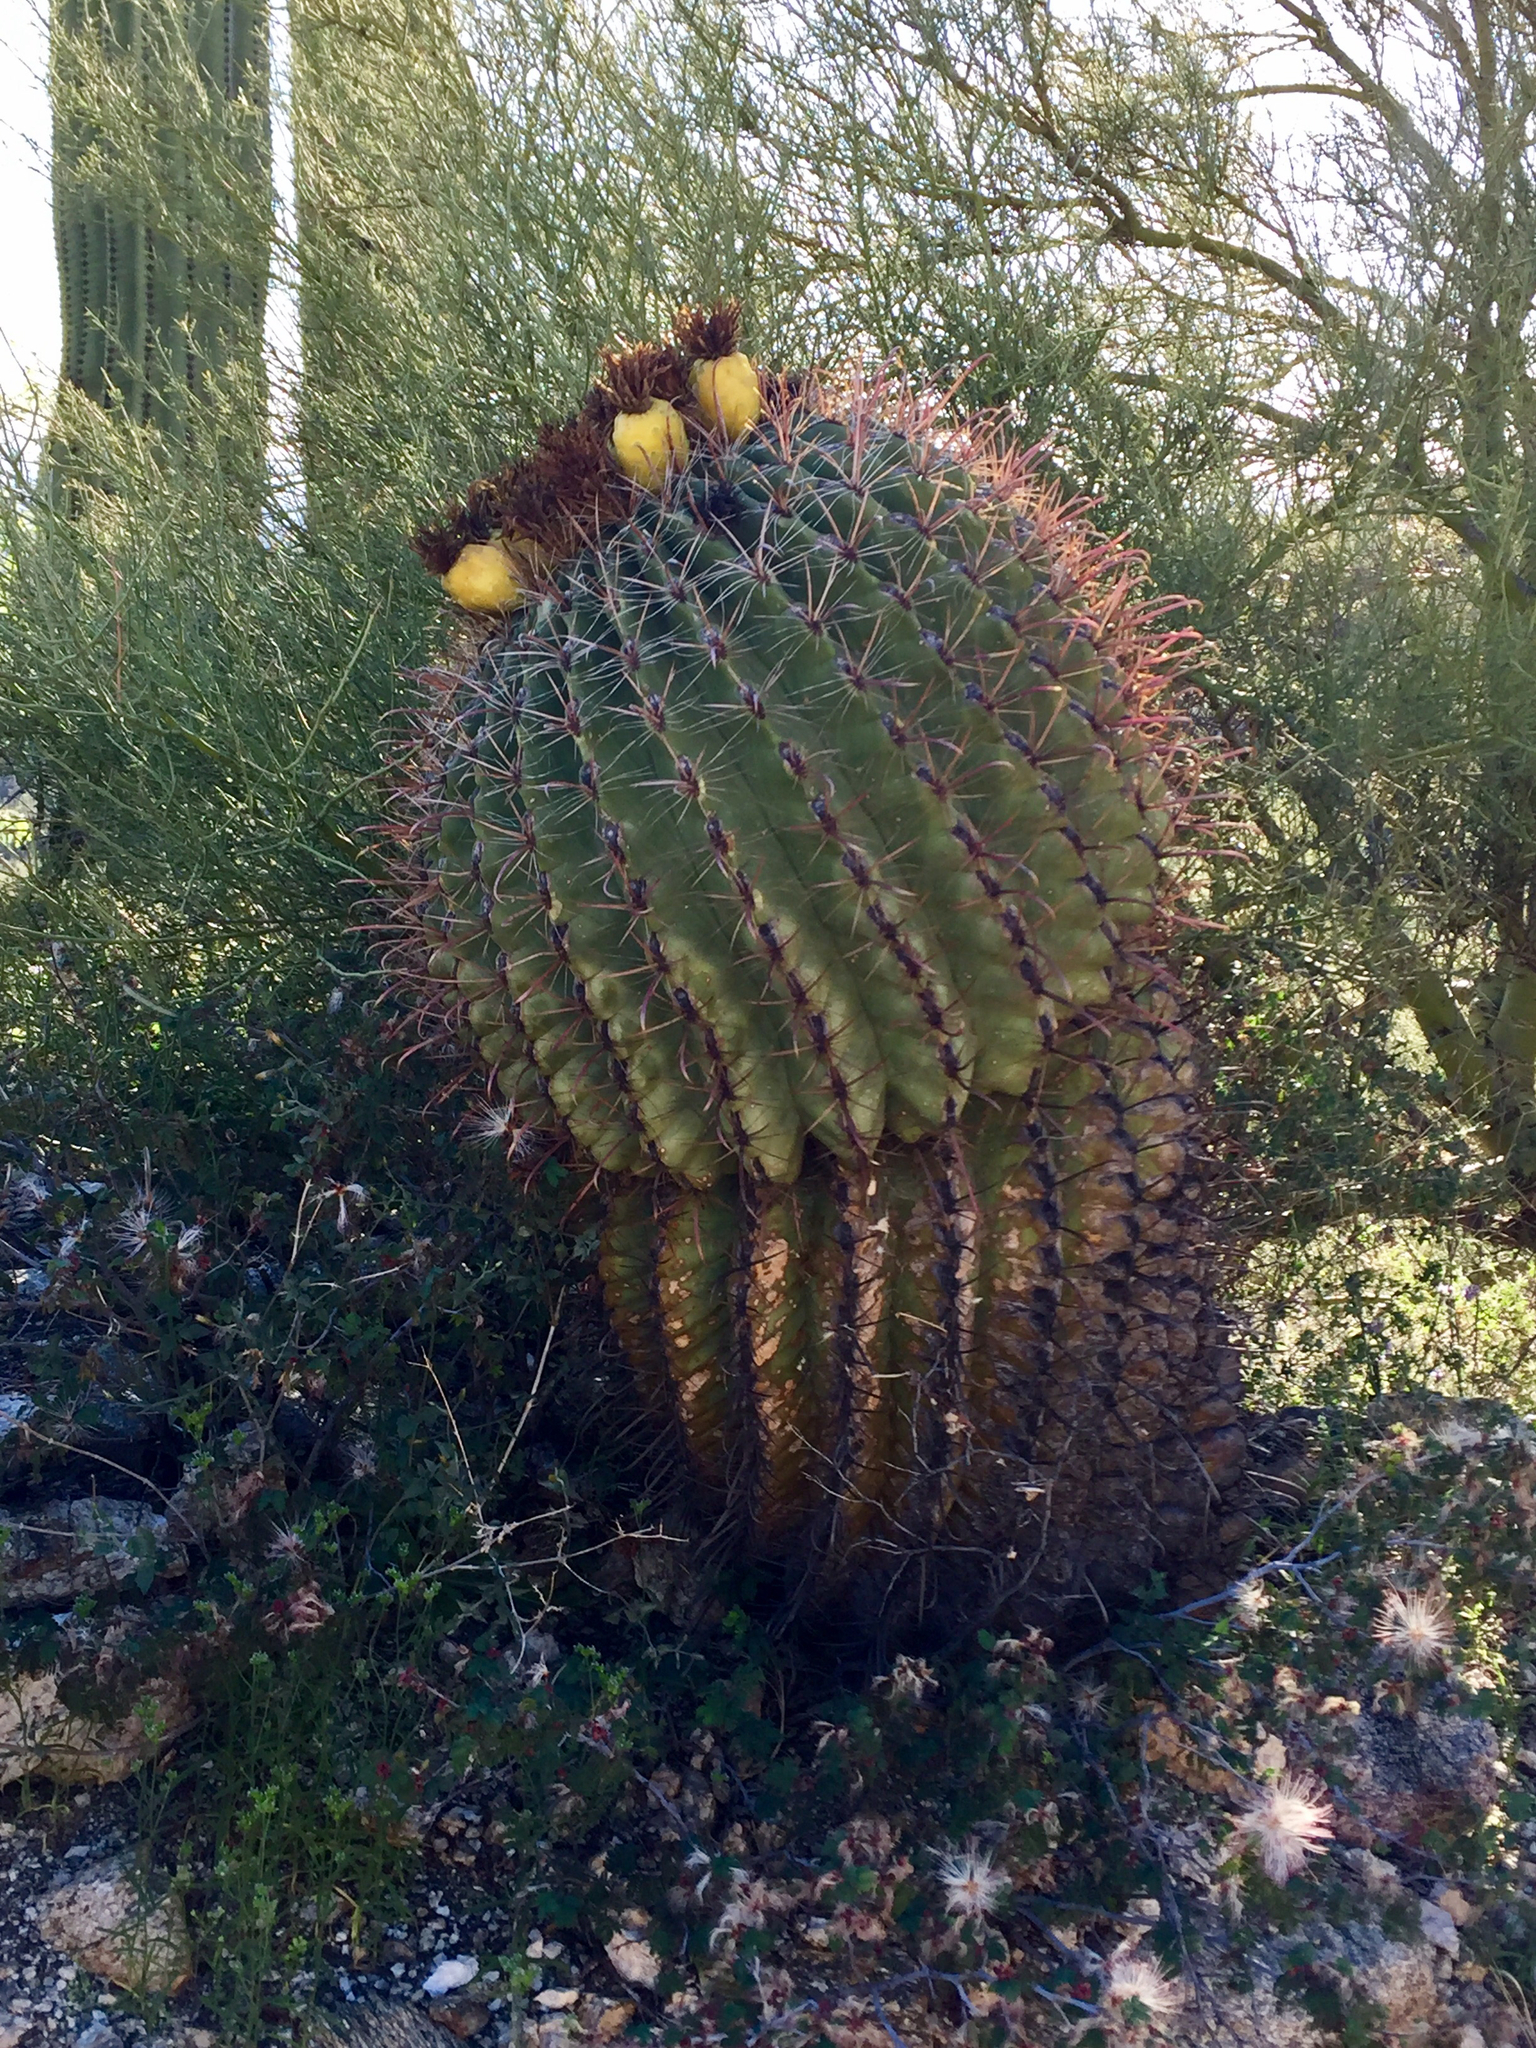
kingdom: Plantae
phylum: Tracheophyta
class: Magnoliopsida
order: Caryophyllales
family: Cactaceae
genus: Ferocactus
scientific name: Ferocactus wislizeni
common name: Candy barrel cactus
